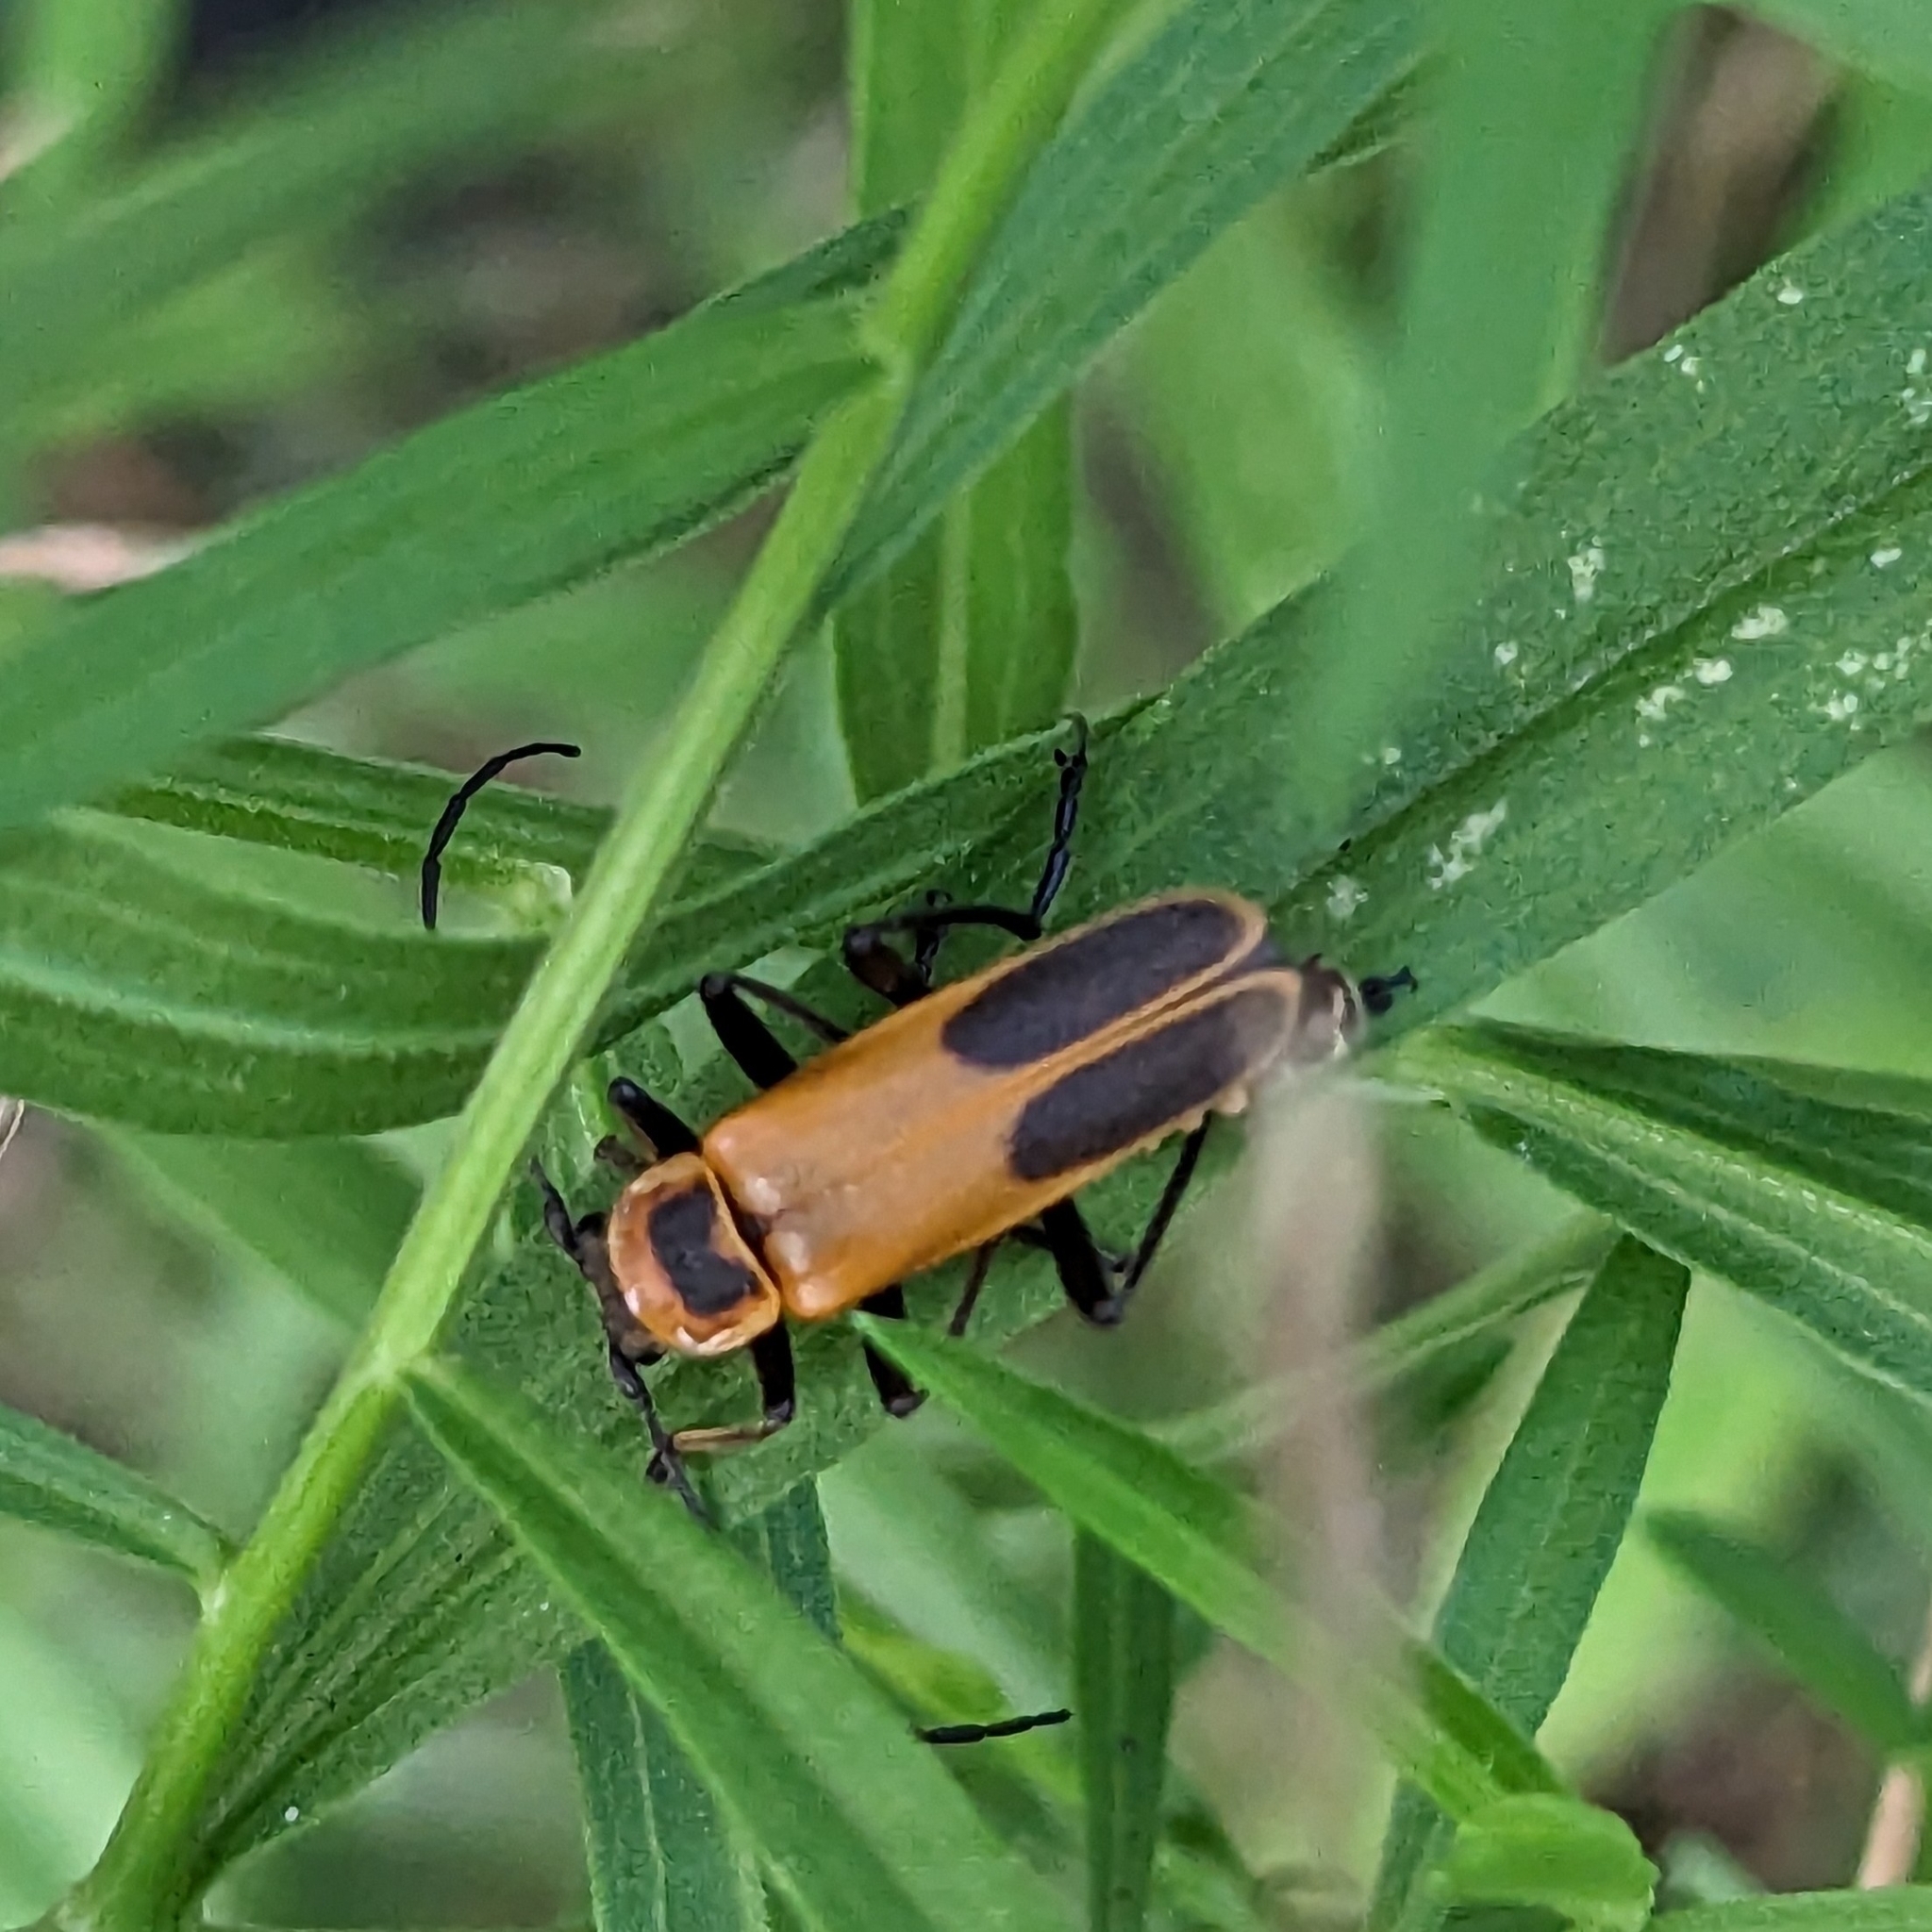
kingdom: Animalia
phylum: Arthropoda
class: Insecta
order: Coleoptera
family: Cantharidae
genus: Chauliognathus
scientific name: Chauliognathus pensylvanicus
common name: Goldenrod soldier beetle
